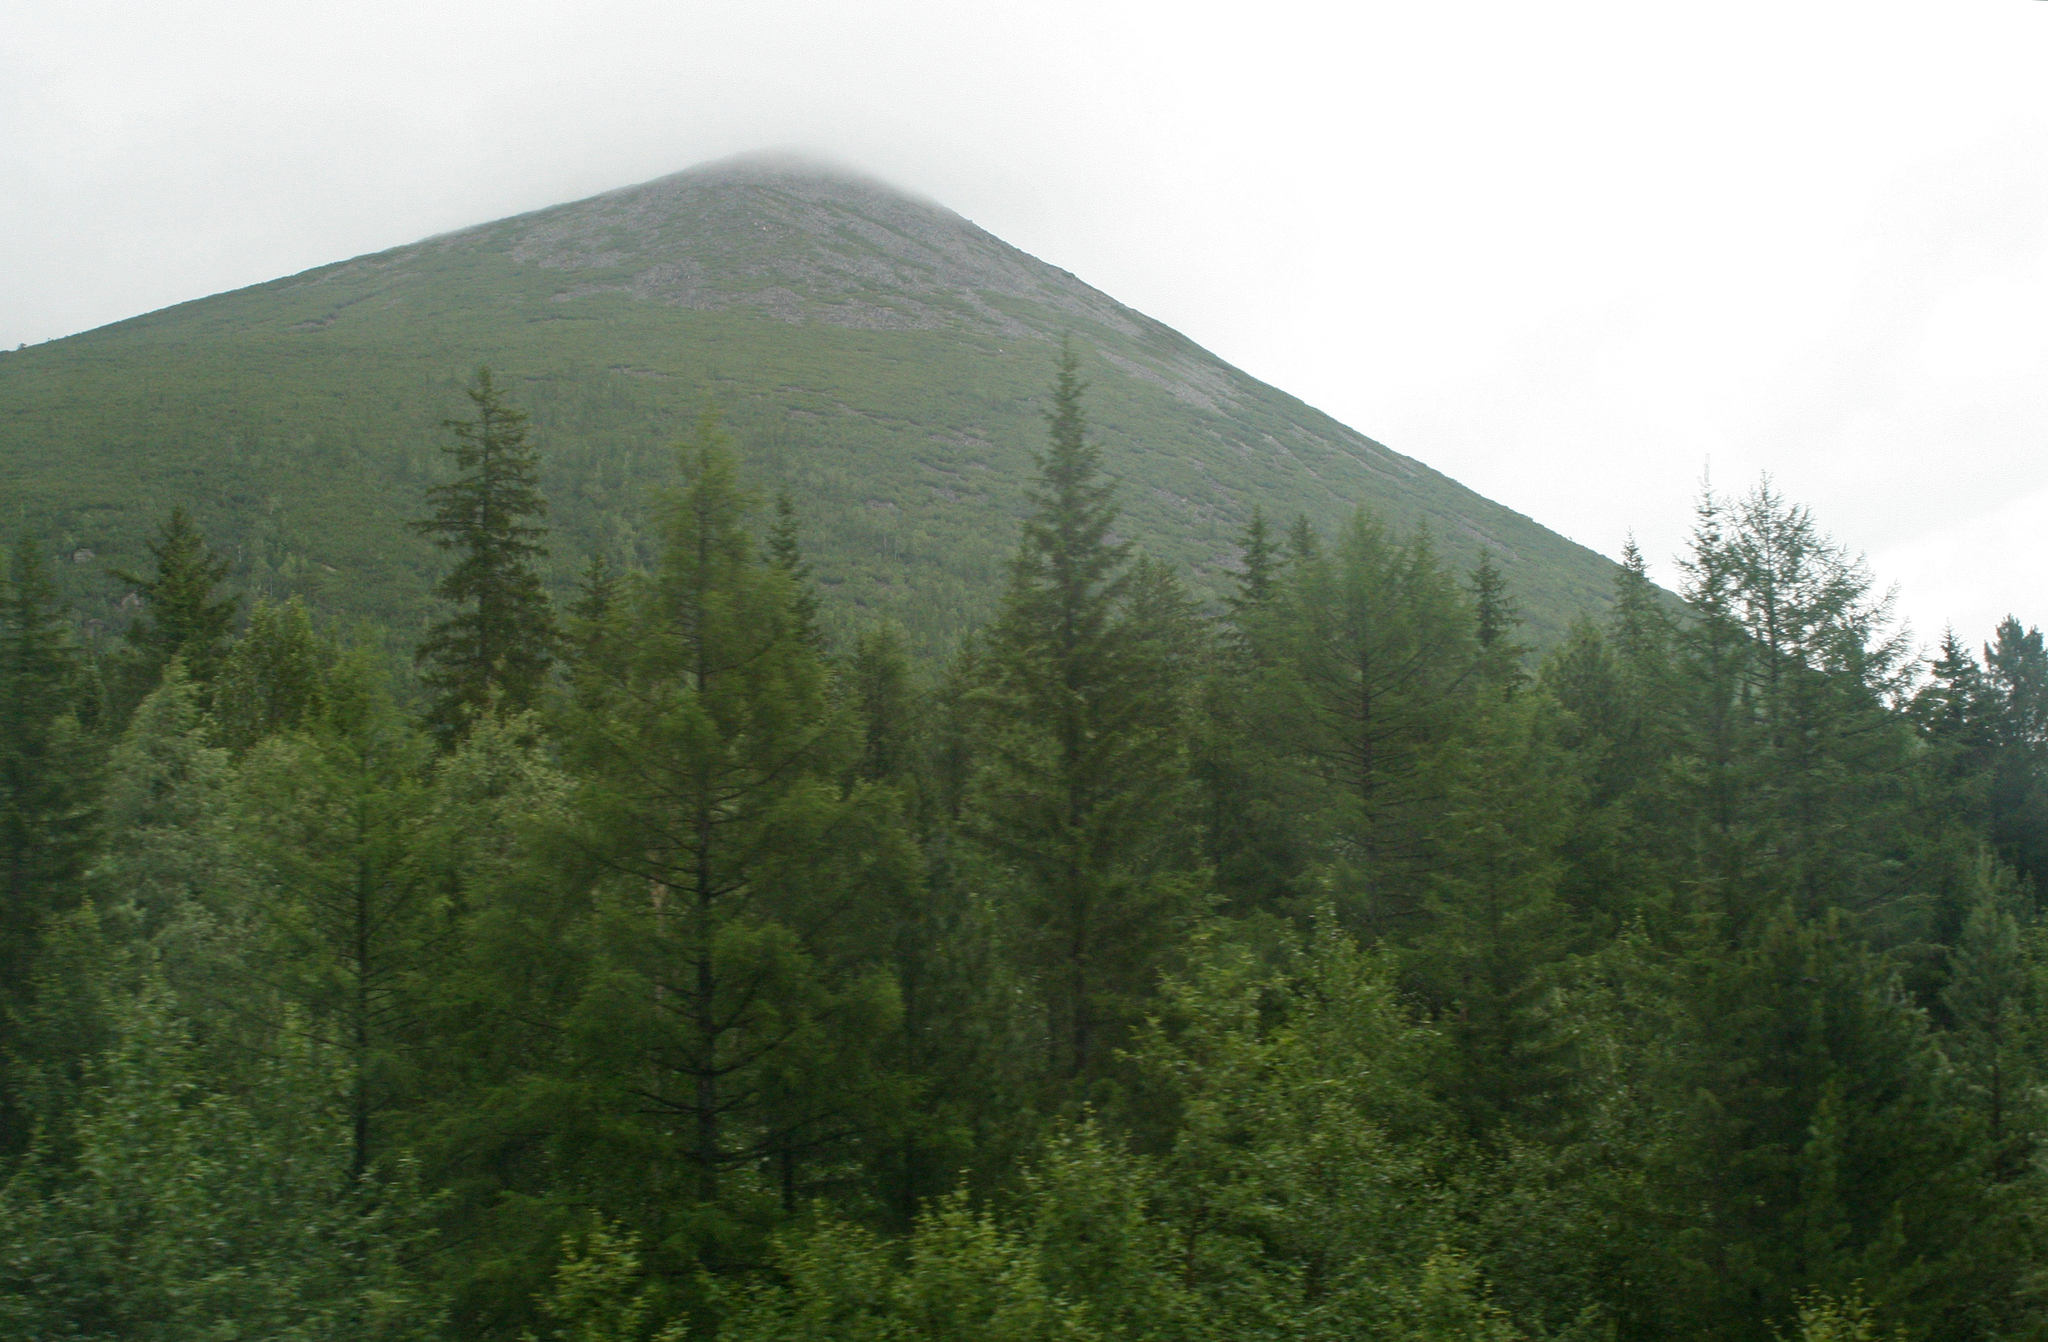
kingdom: Plantae
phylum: Tracheophyta
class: Pinopsida
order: Pinales
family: Pinaceae
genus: Picea
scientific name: Picea obovata
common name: Siberian spruce
